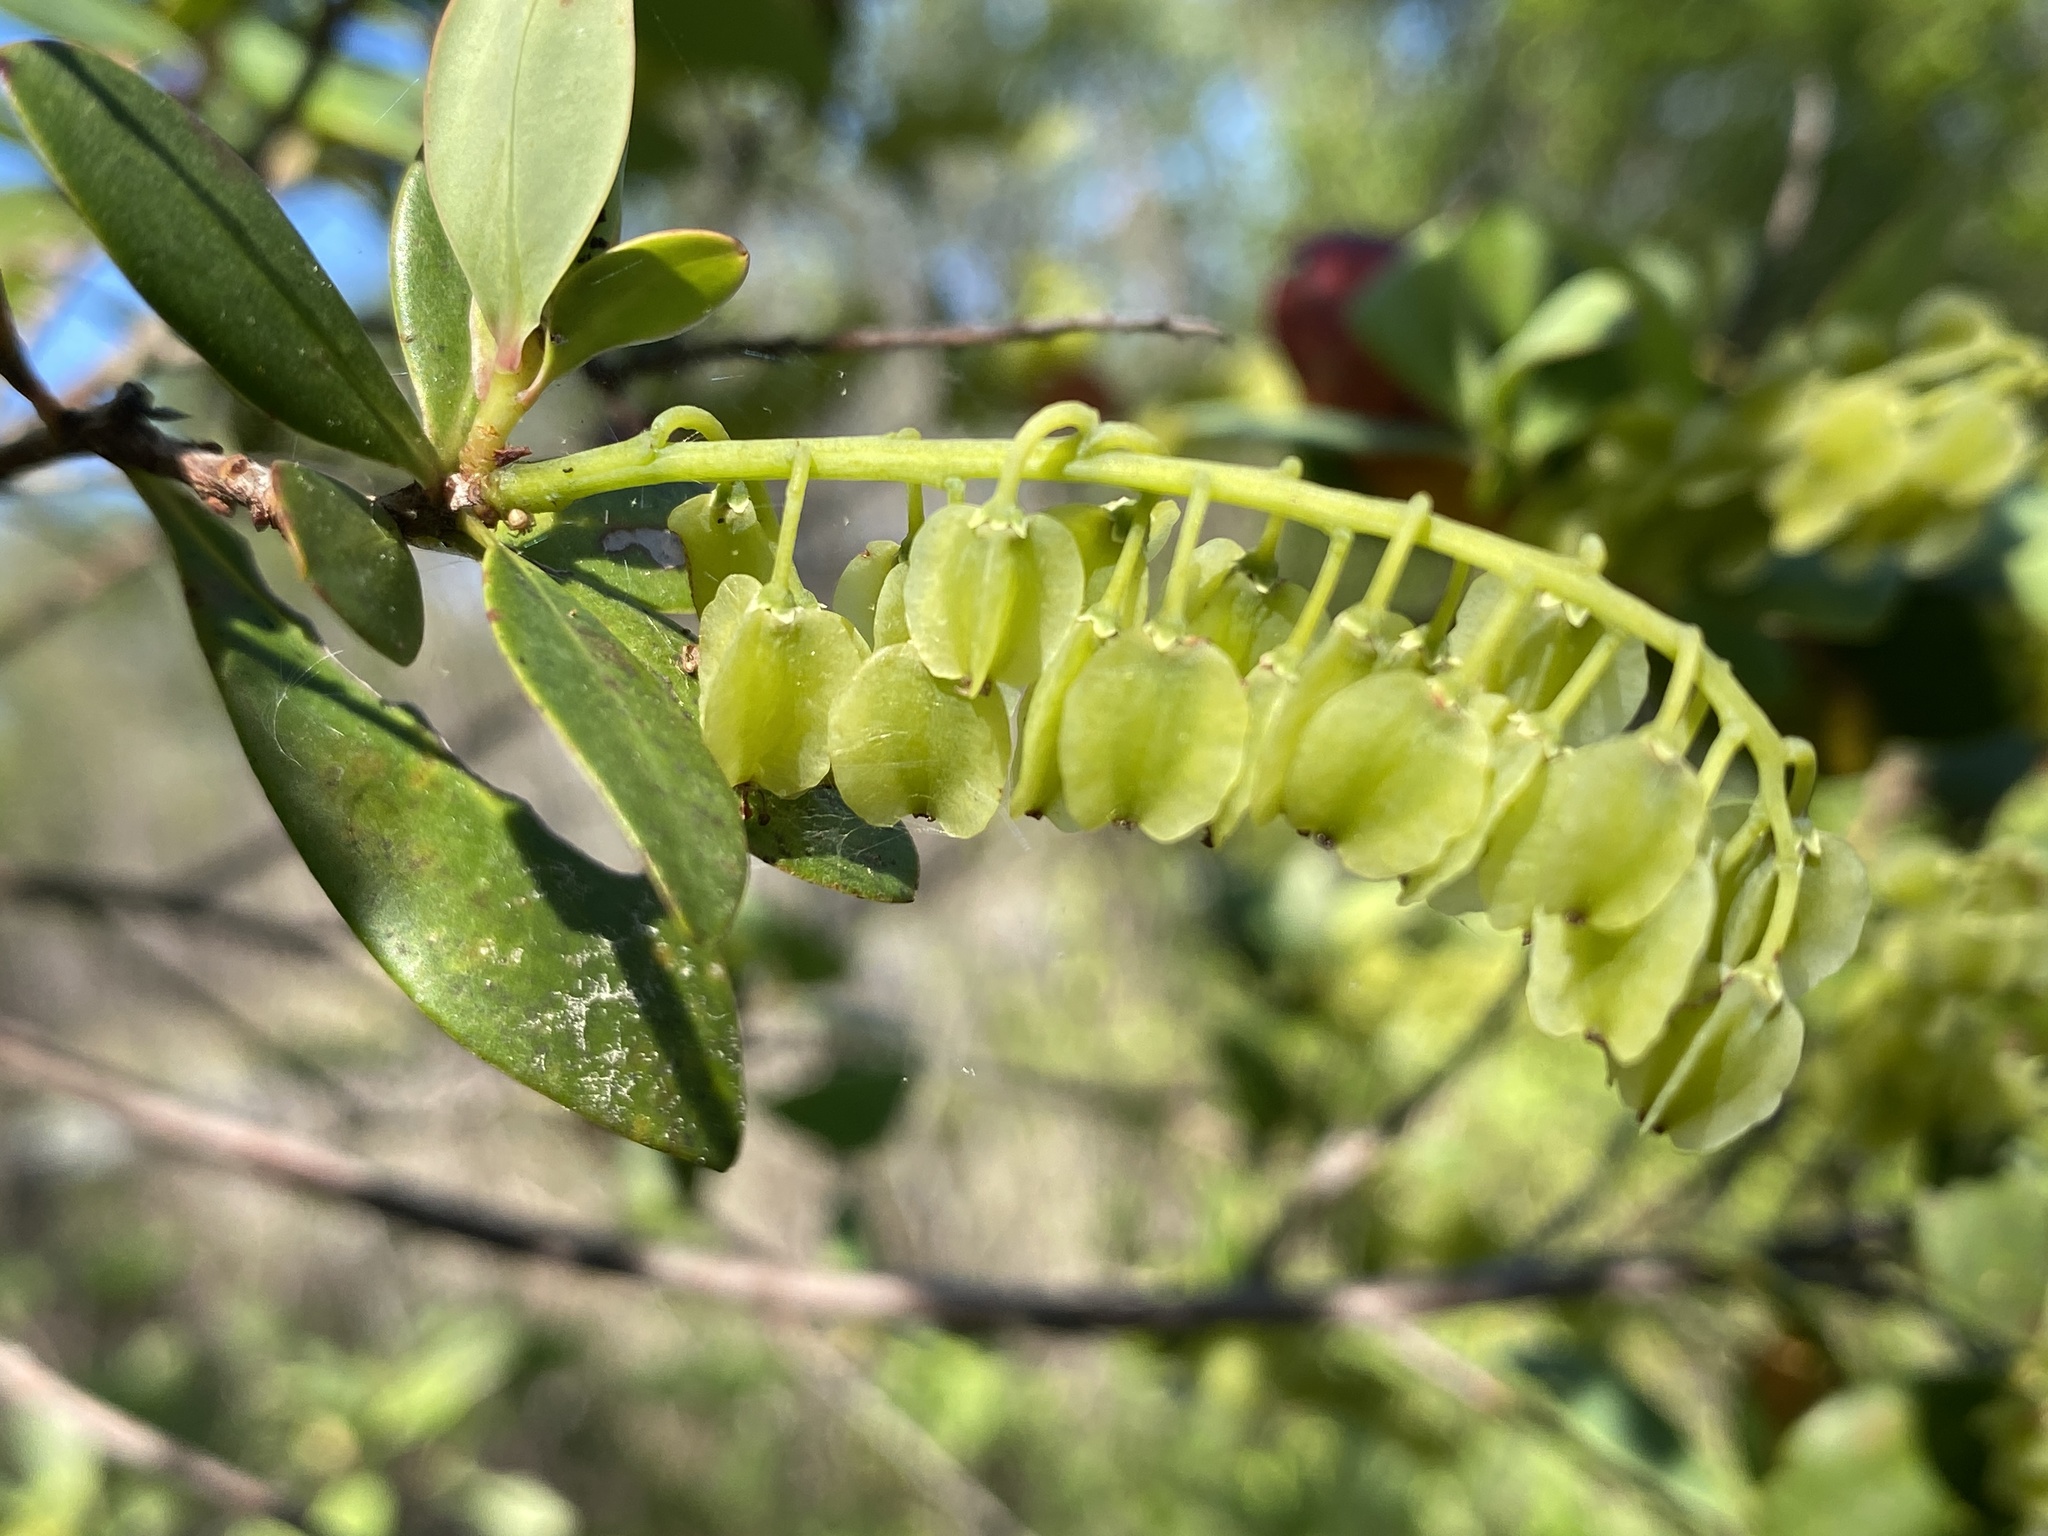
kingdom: Plantae
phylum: Tracheophyta
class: Magnoliopsida
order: Ericales
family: Cyrillaceae
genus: Cliftonia
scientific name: Cliftonia monophylla
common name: Titi
